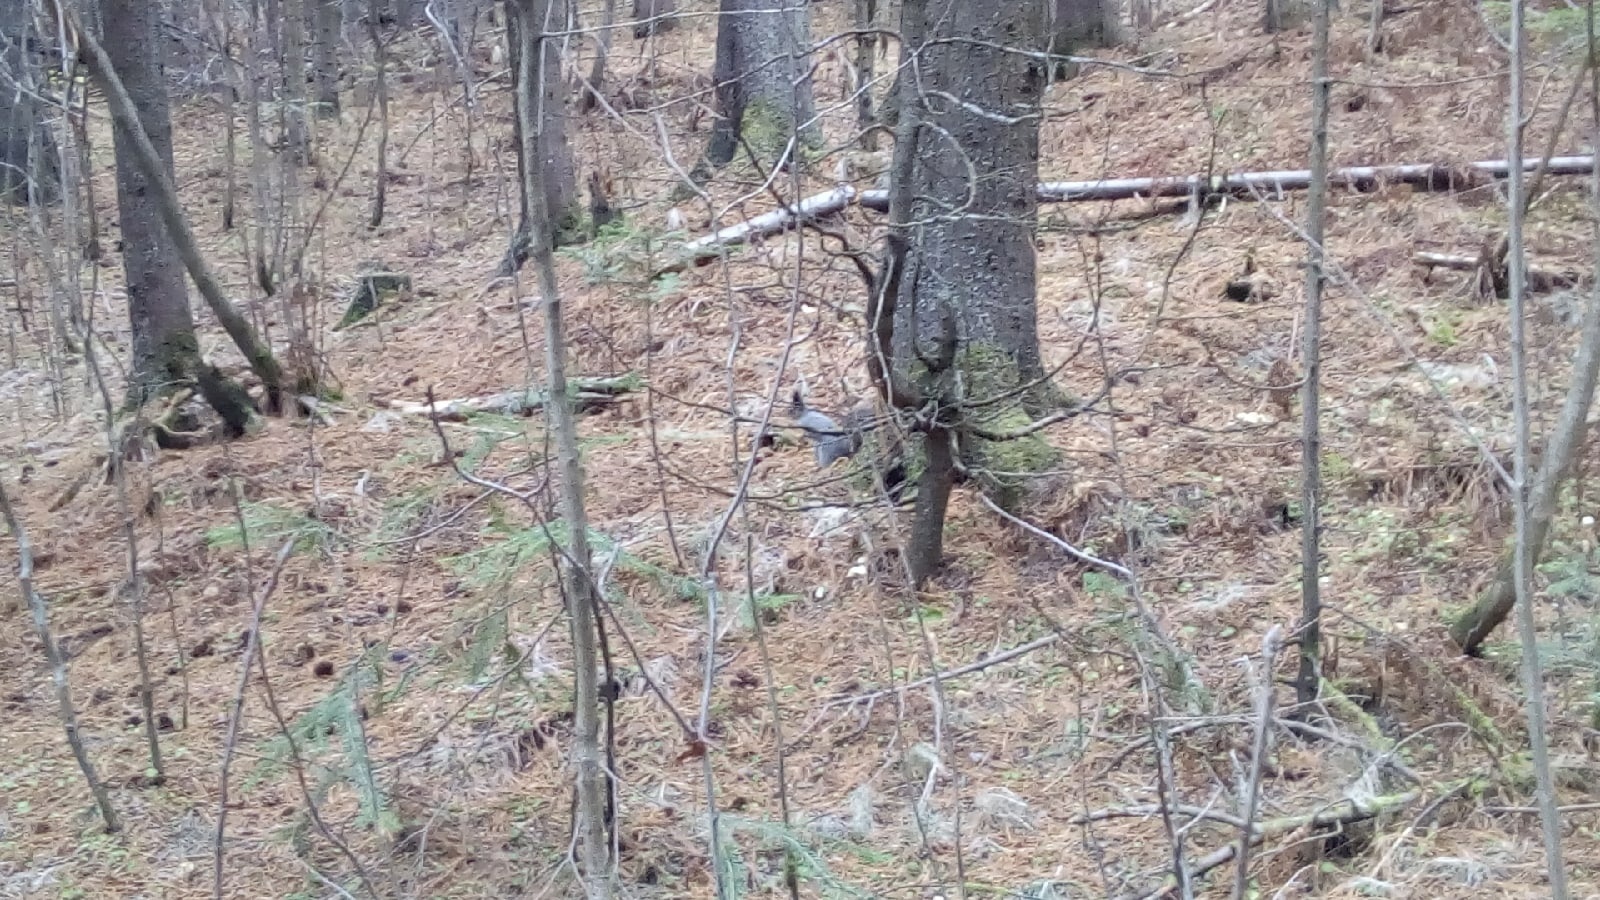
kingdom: Animalia
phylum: Chordata
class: Mammalia
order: Rodentia
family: Sciuridae
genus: Sciurus
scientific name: Sciurus vulgaris
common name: Eurasian red squirrel
